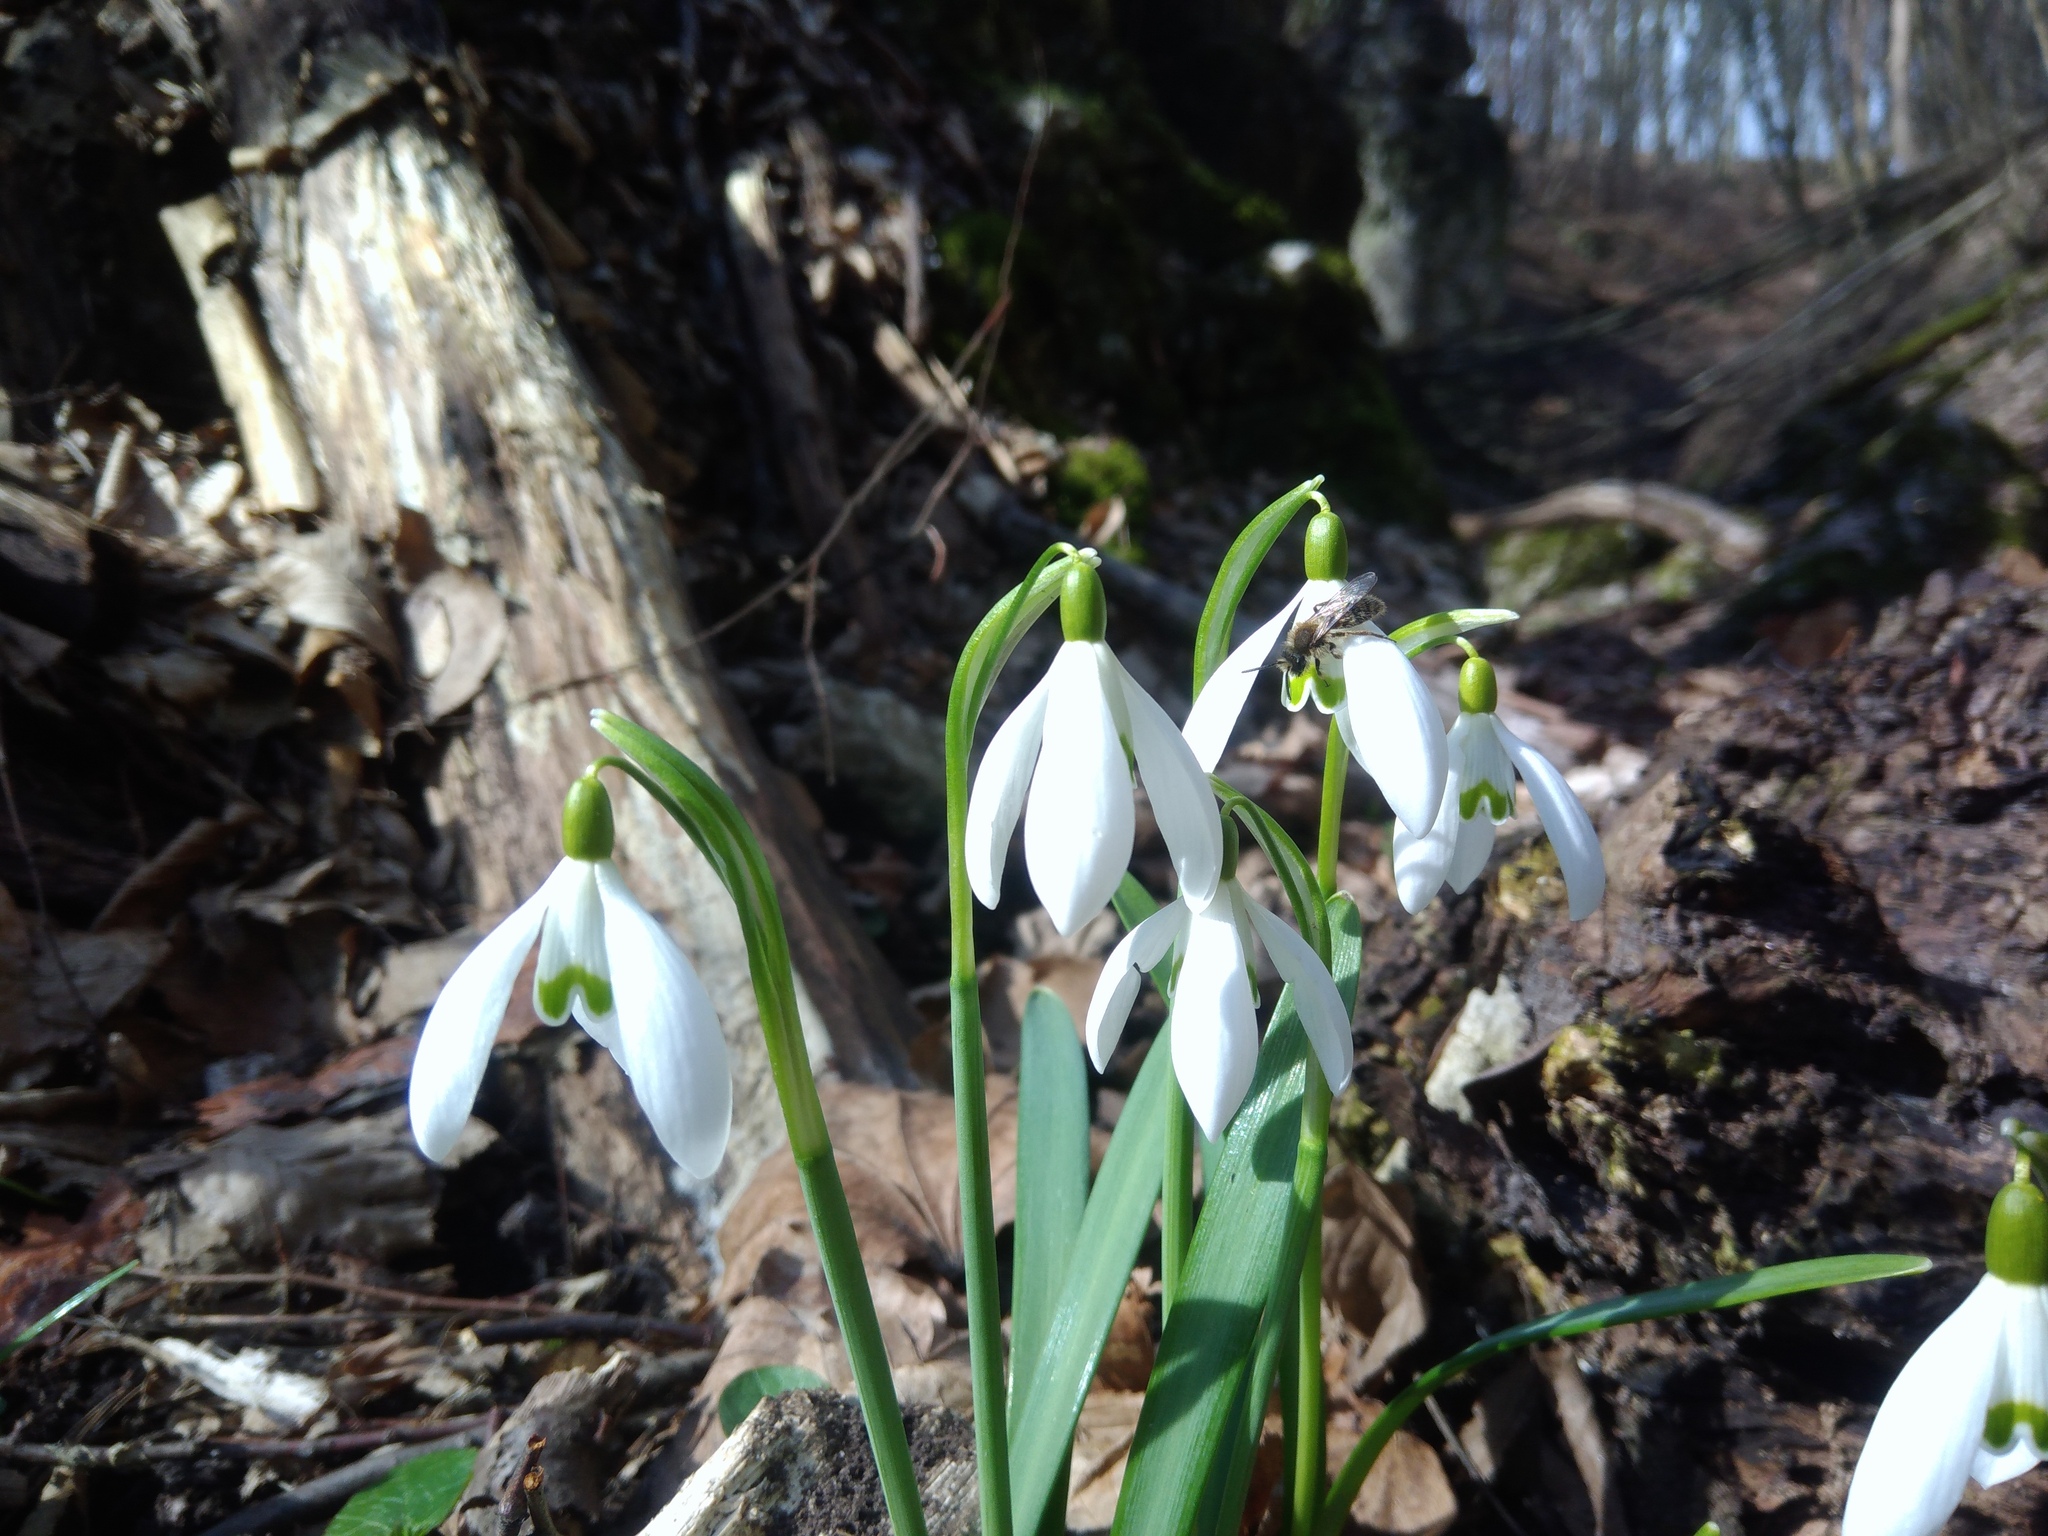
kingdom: Plantae
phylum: Tracheophyta
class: Liliopsida
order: Asparagales
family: Amaryllidaceae
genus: Galanthus
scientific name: Galanthus nivalis
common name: Snowdrop
